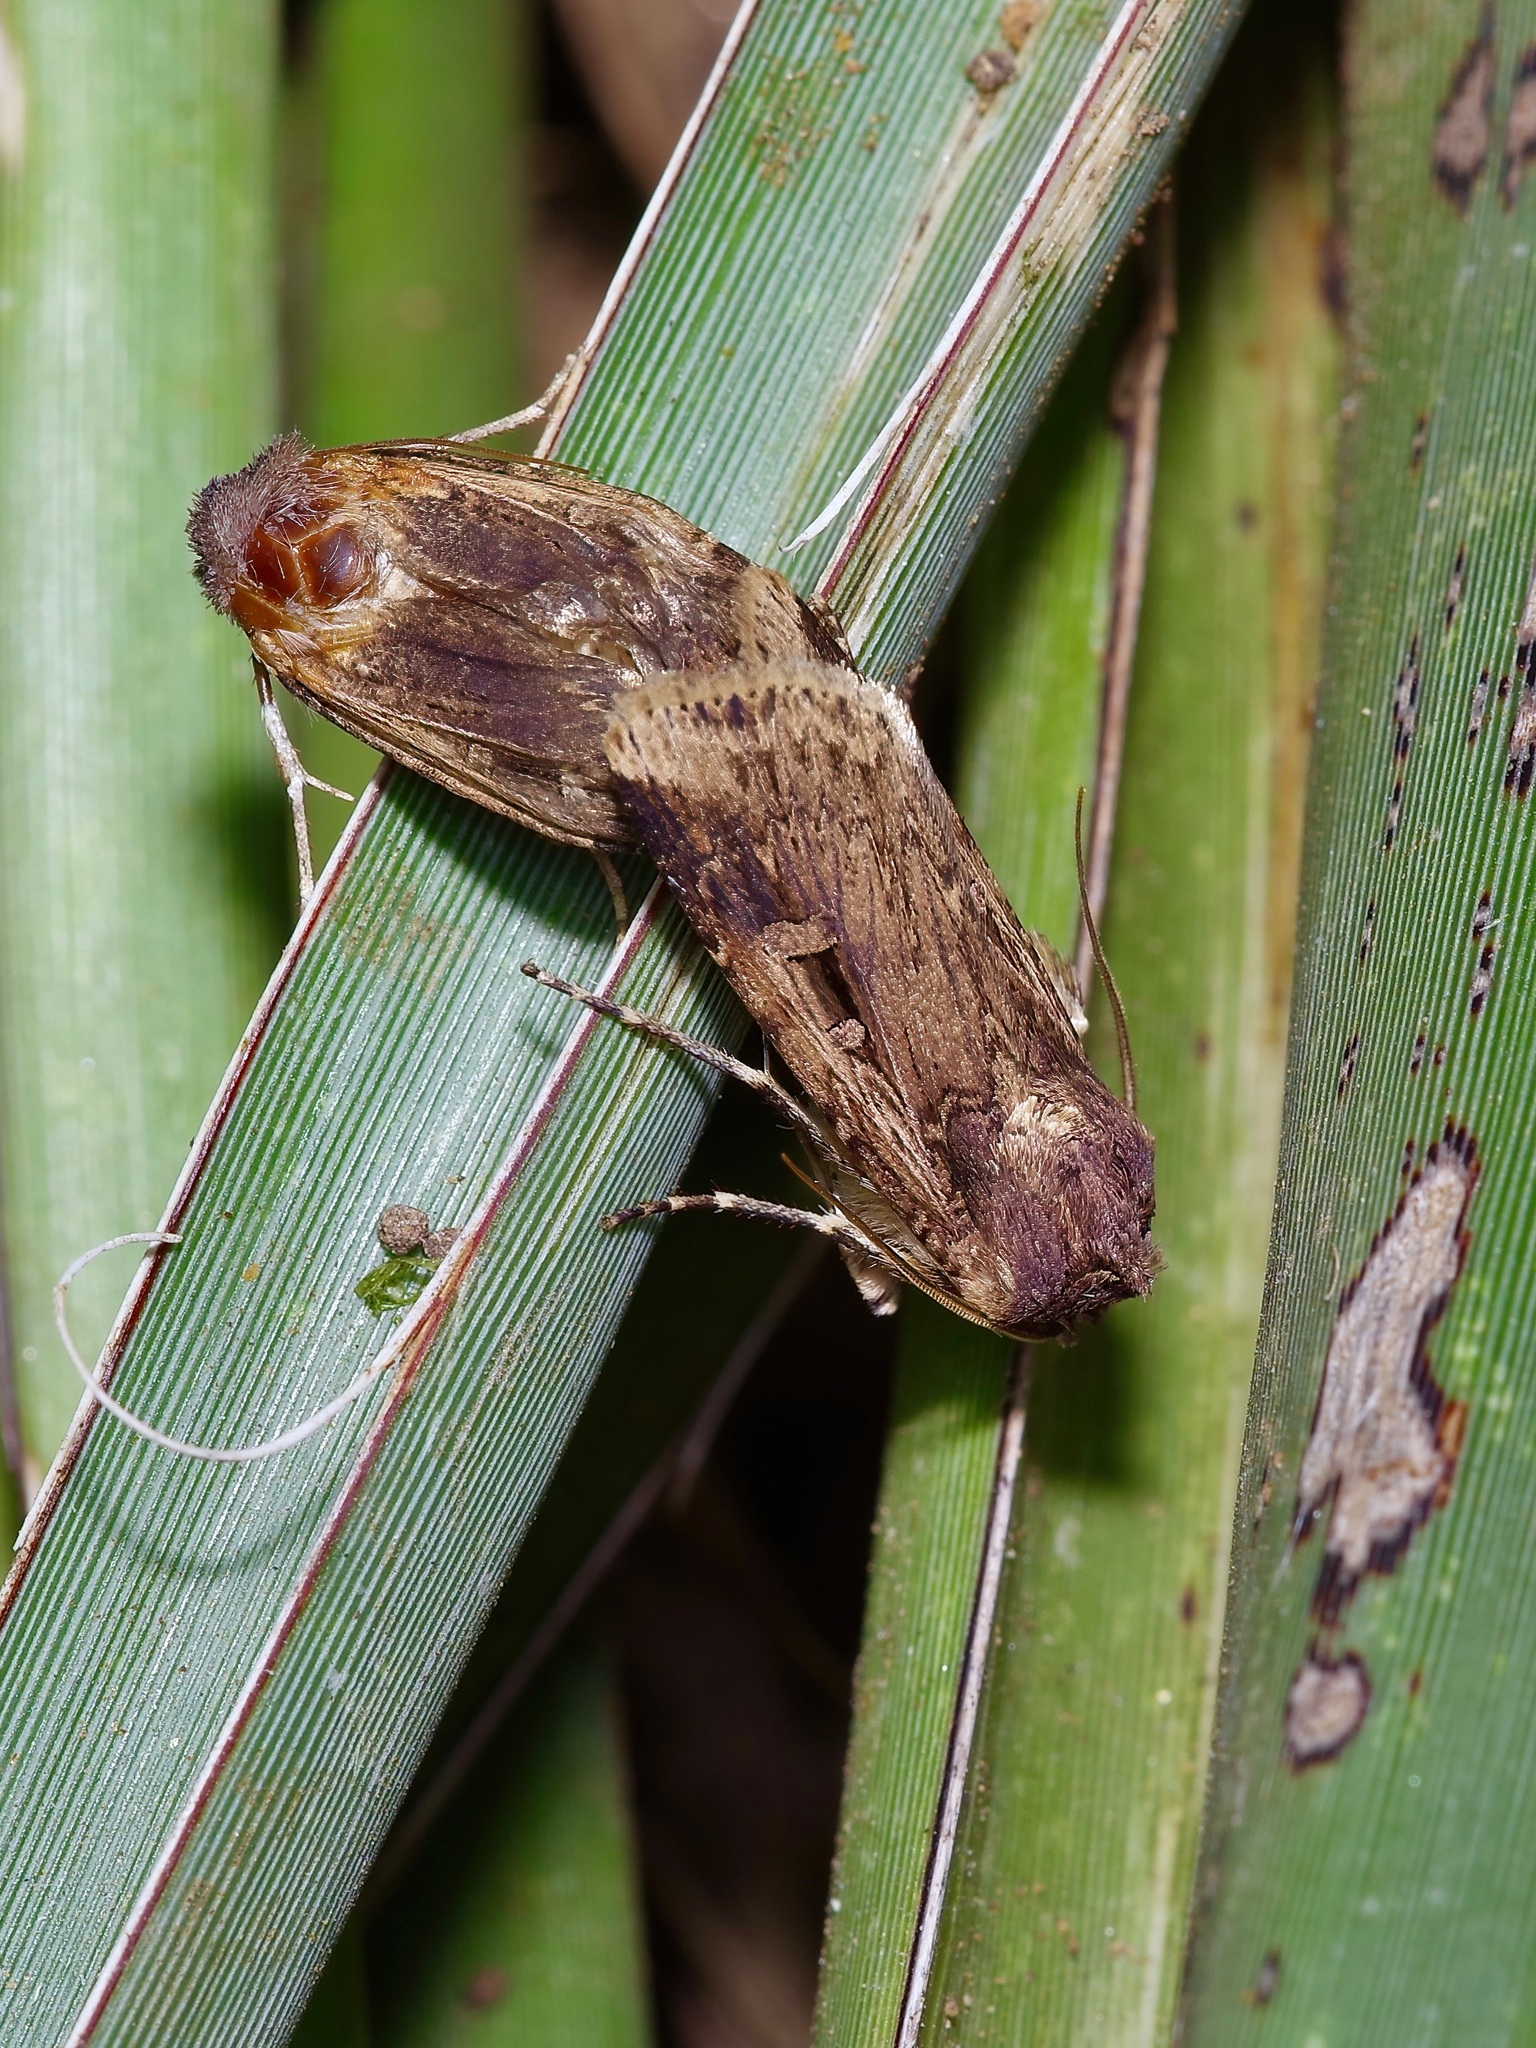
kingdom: Animalia
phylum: Arthropoda
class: Insecta
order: Lepidoptera
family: Noctuidae
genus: Feltia
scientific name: Feltia subterranea
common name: Granulate cutworm
